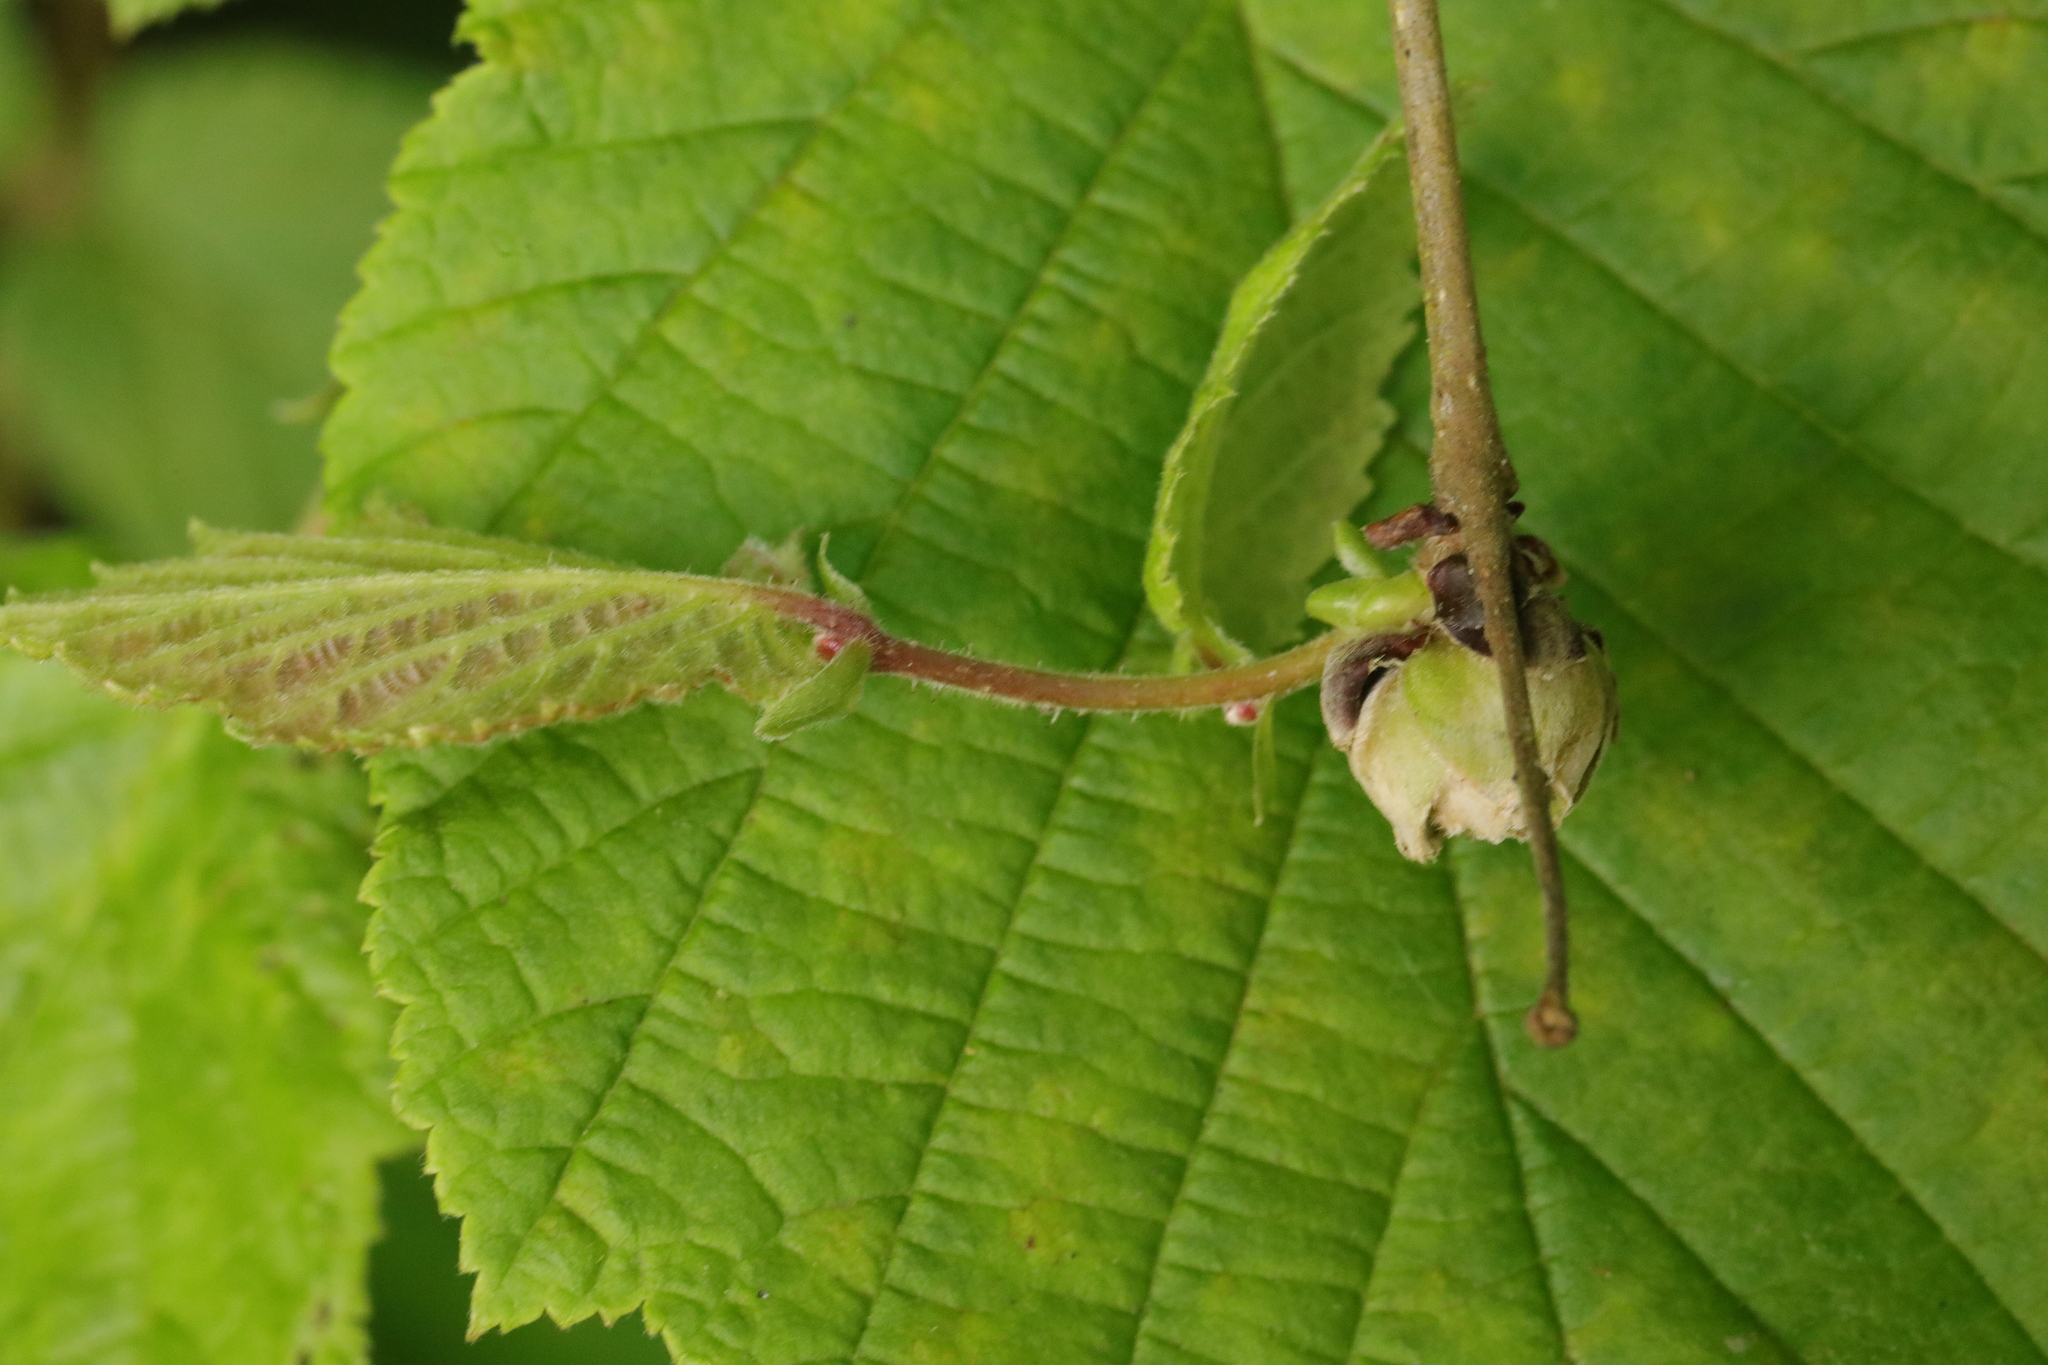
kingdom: Animalia
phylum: Arthropoda
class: Arachnida
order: Trombidiformes
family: Phytoptidae
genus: Phytoptus
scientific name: Phytoptus avellanae
